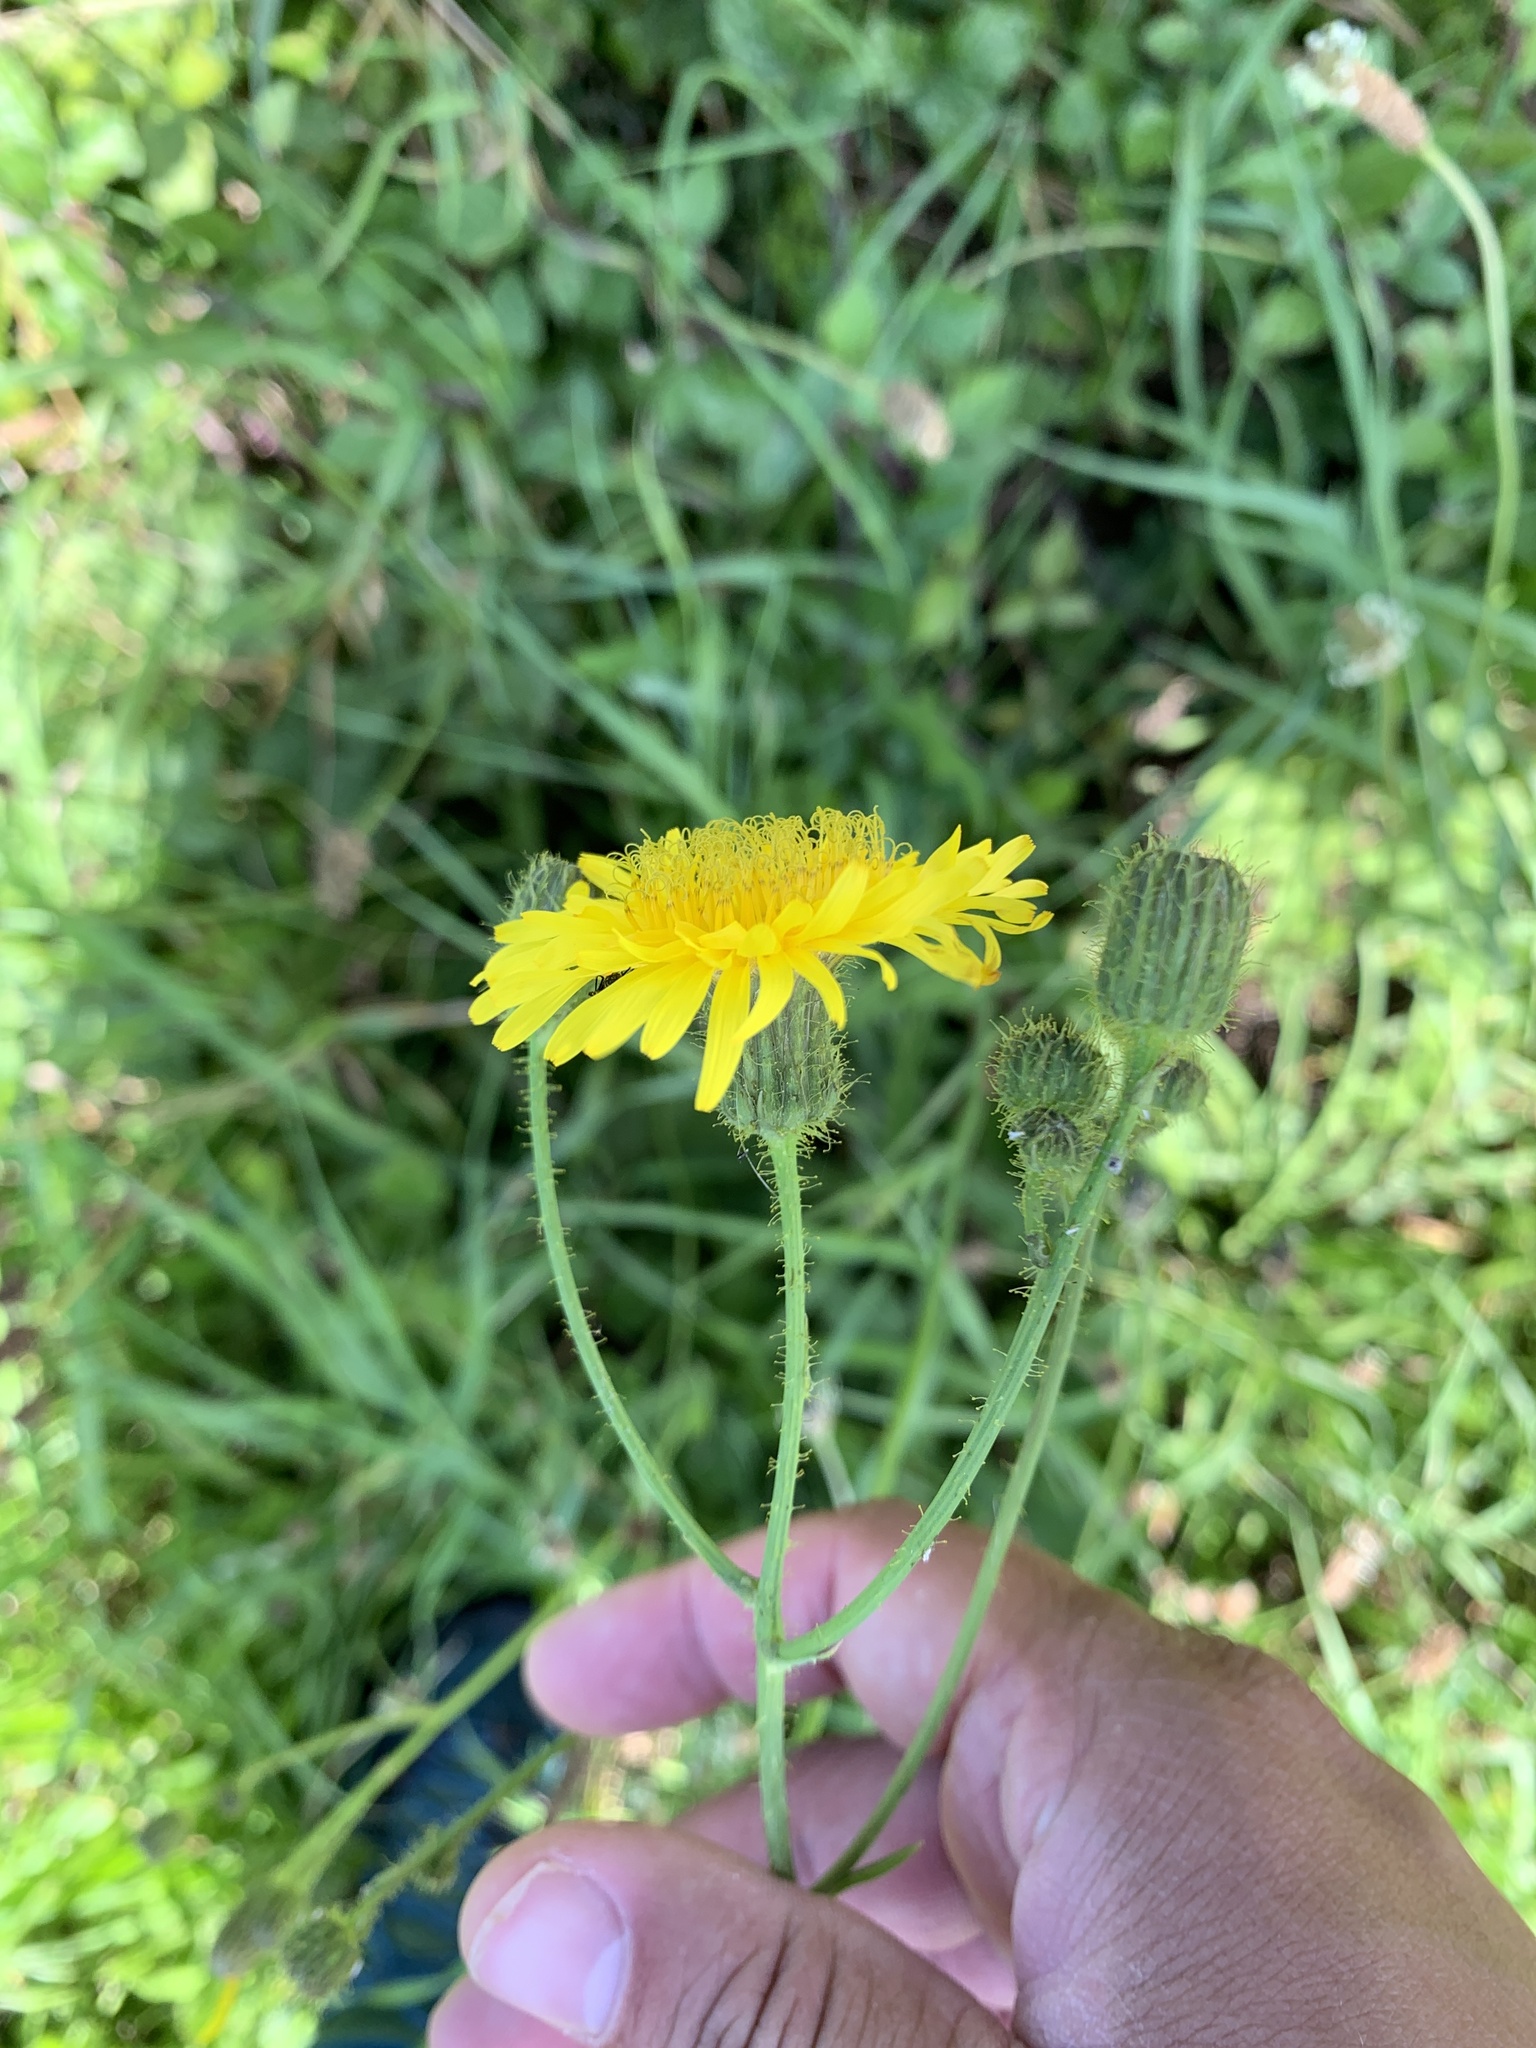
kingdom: Plantae
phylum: Tracheophyta
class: Magnoliopsida
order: Asterales
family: Asteraceae
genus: Sonchus
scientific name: Sonchus arvensis
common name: Perennial sow-thistle
